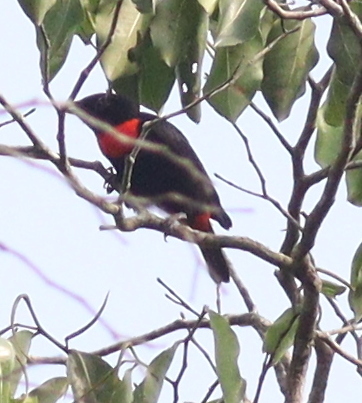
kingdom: Animalia
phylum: Chordata
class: Aves
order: Passeriformes
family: Ploceidae
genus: Malimbus
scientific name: Malimbus scutatus
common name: Red-vented malimbe
